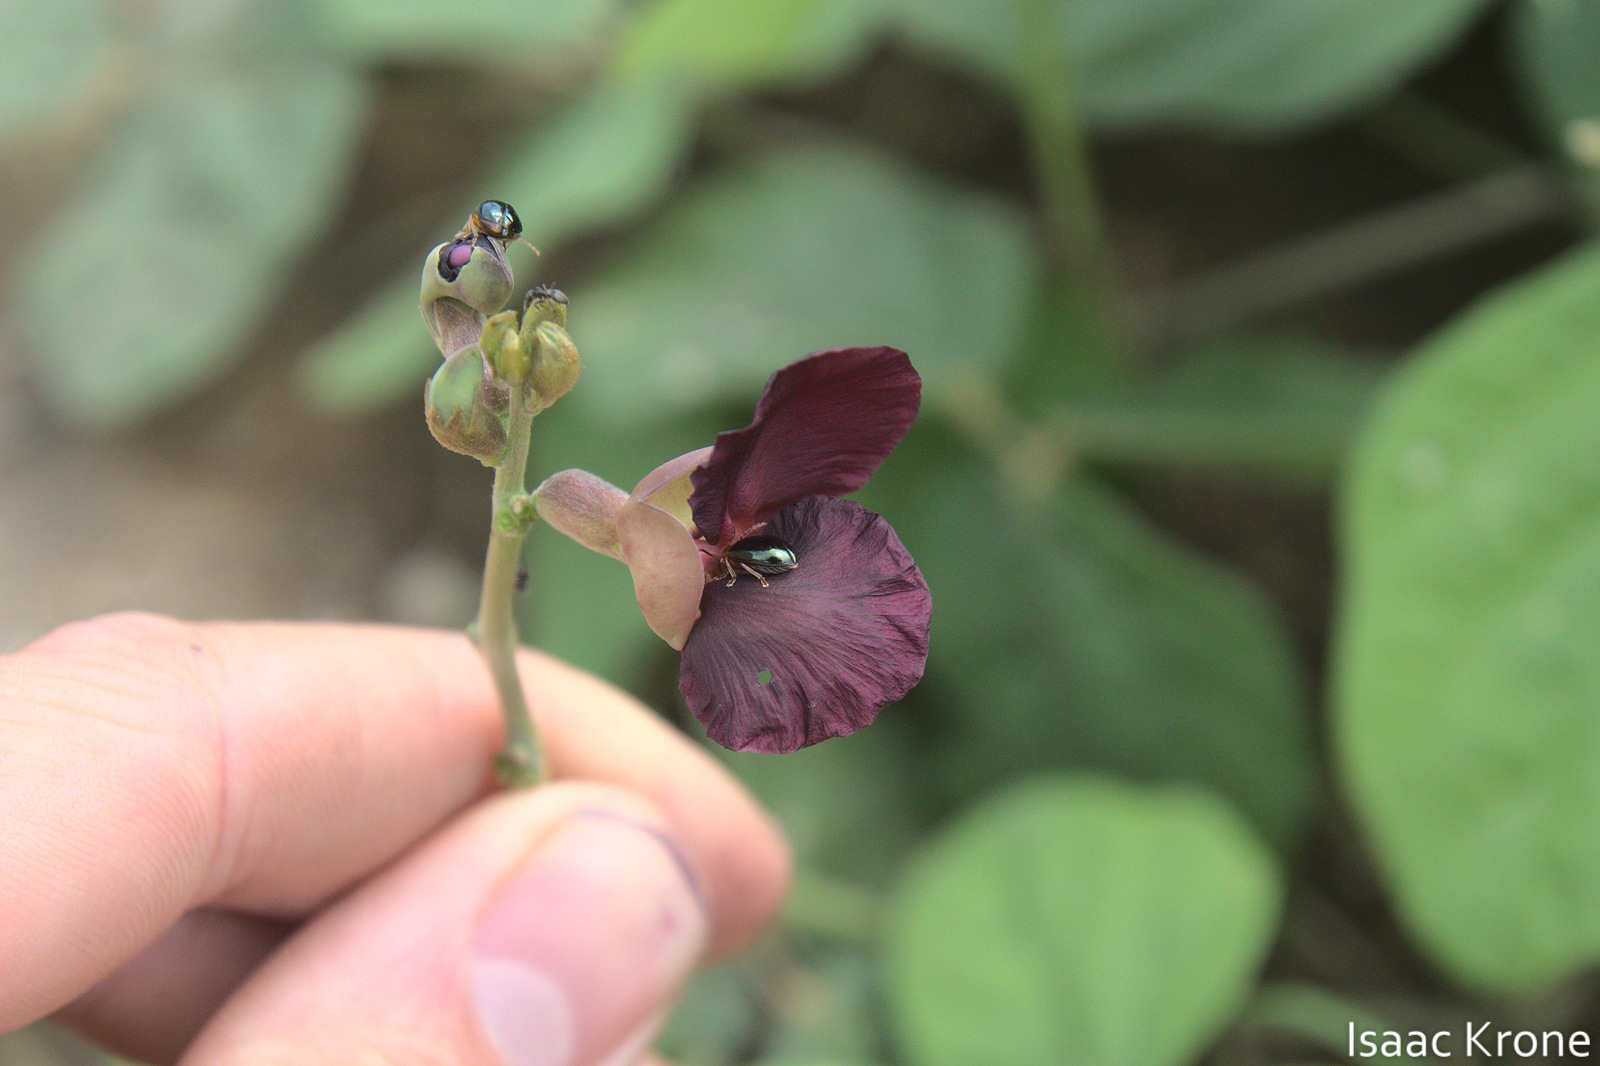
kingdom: Plantae
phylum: Tracheophyta
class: Magnoliopsida
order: Fabales
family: Fabaceae
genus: Macroptilium
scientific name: Macroptilium atropurpureum
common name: Purple bushbean
